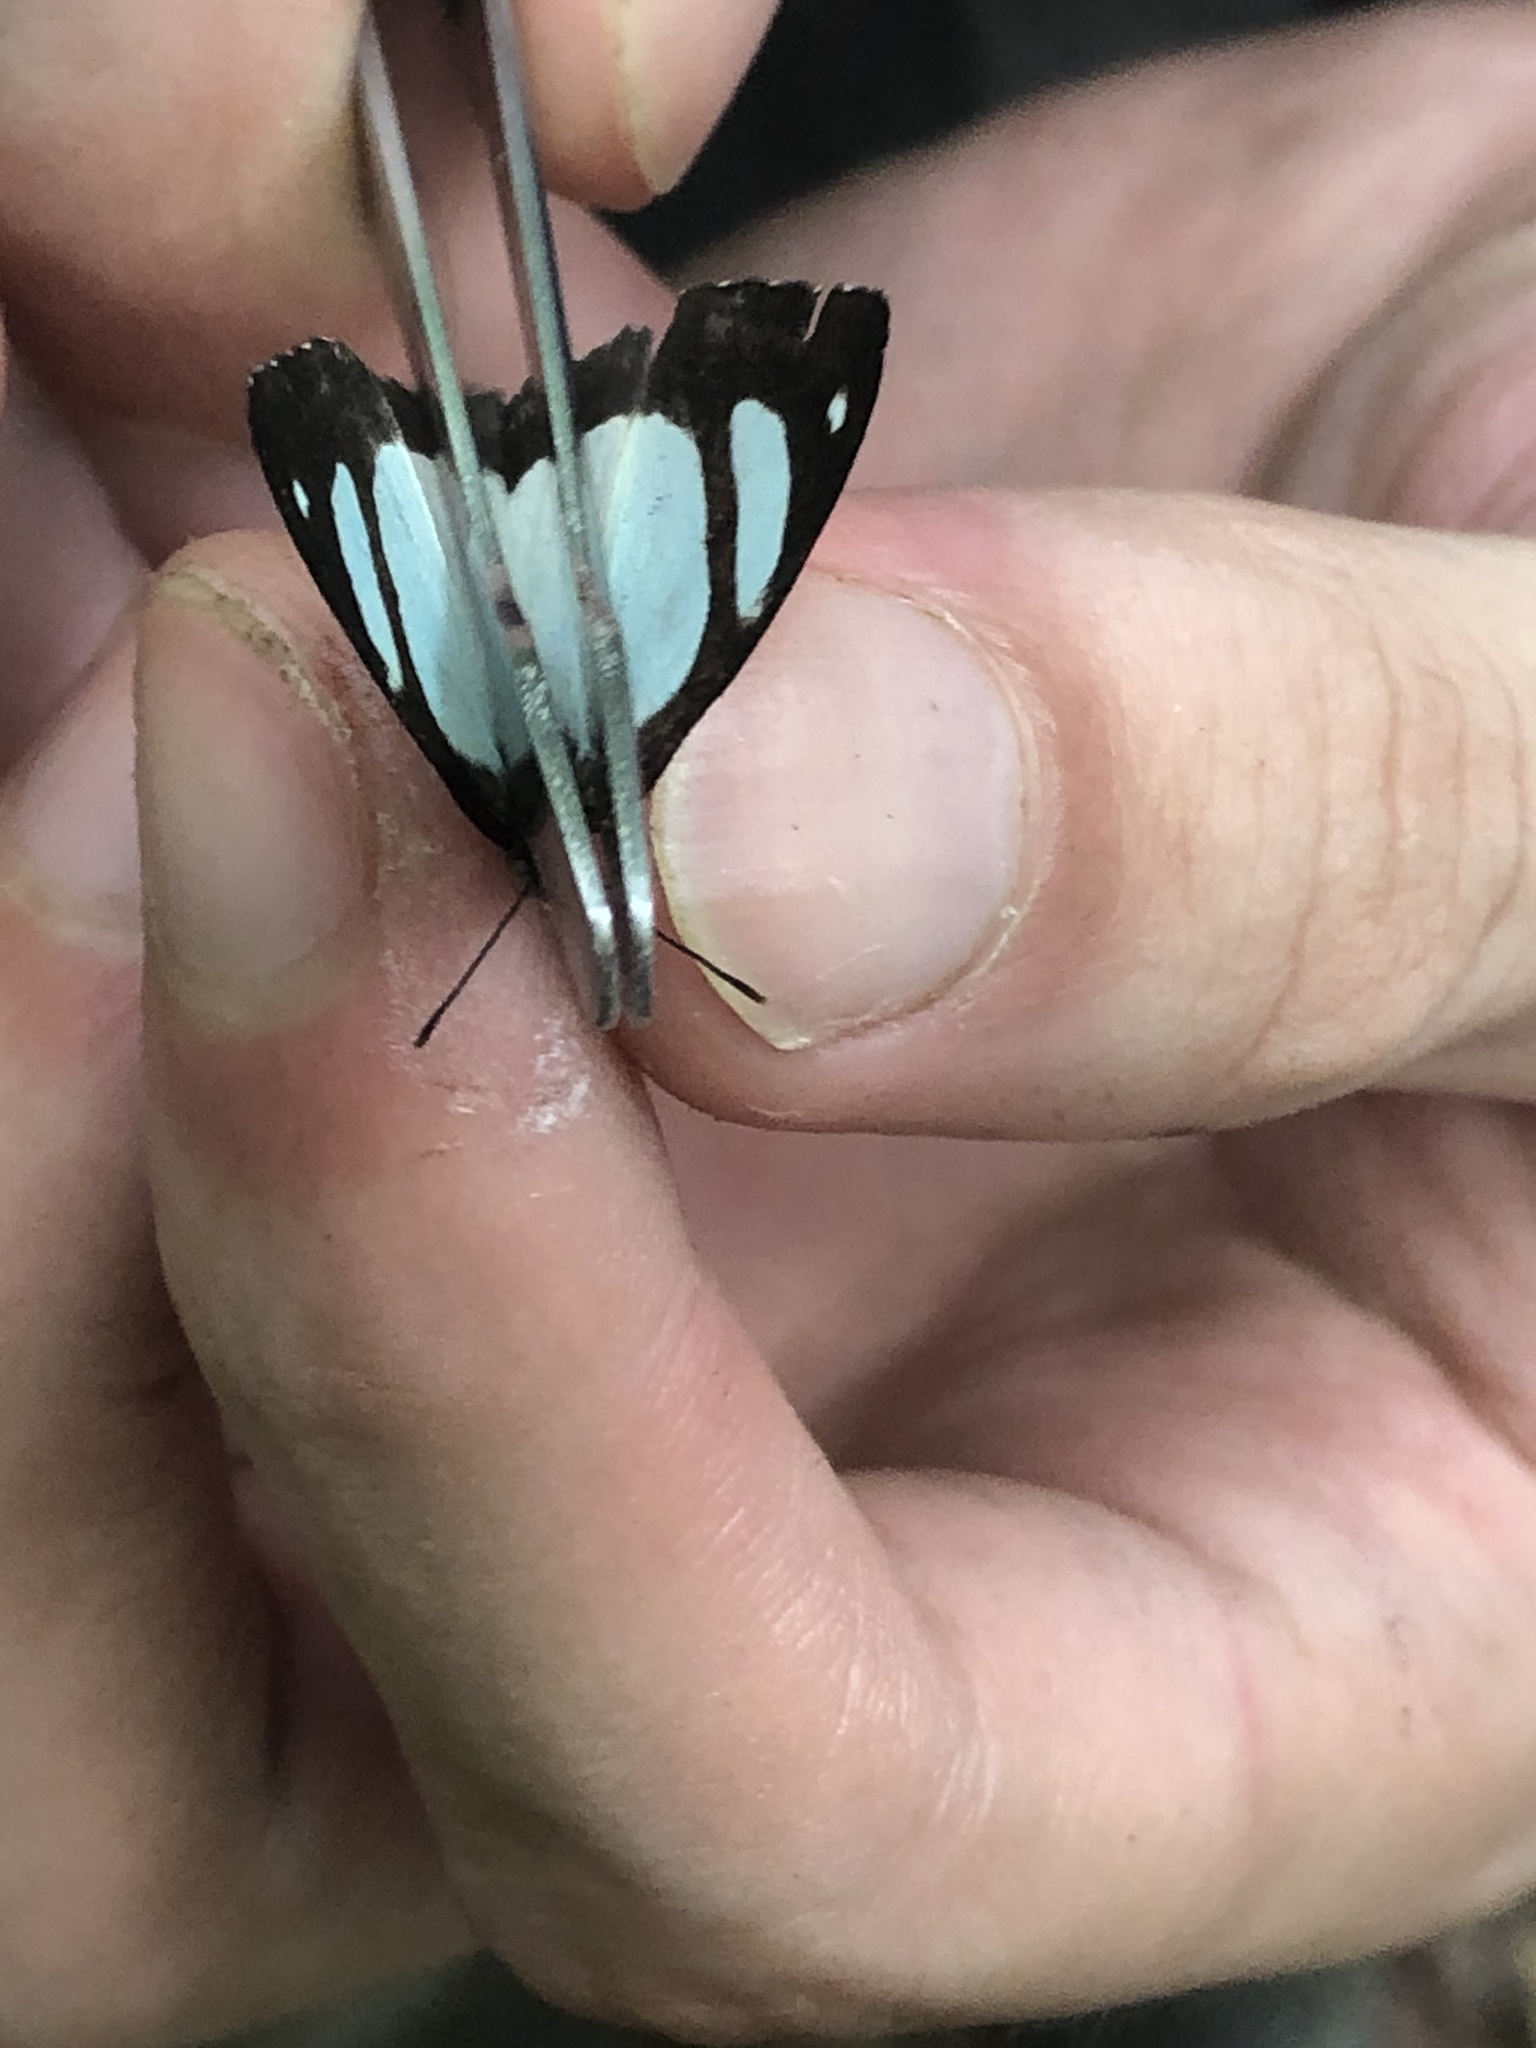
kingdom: Animalia
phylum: Arthropoda
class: Insecta
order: Lepidoptera
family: Nymphalidae
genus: Pyrrhogyra
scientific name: Pyrrhogyra crameri
